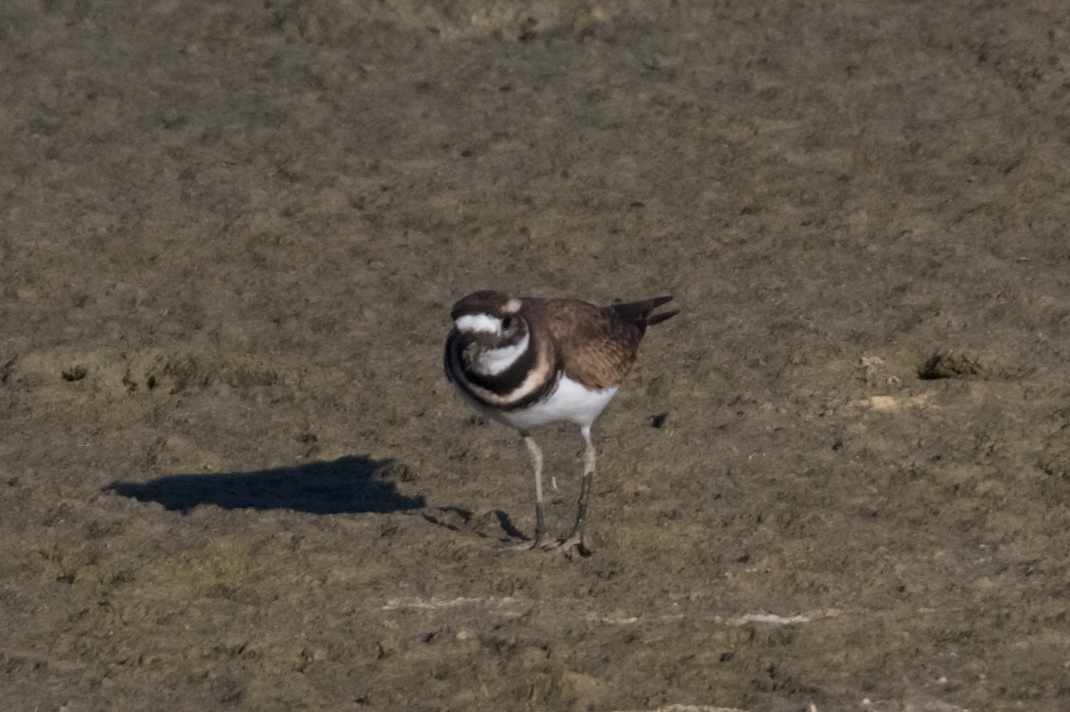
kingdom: Animalia
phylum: Chordata
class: Aves
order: Charadriiformes
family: Charadriidae
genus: Charadrius
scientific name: Charadrius vociferus
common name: Killdeer
